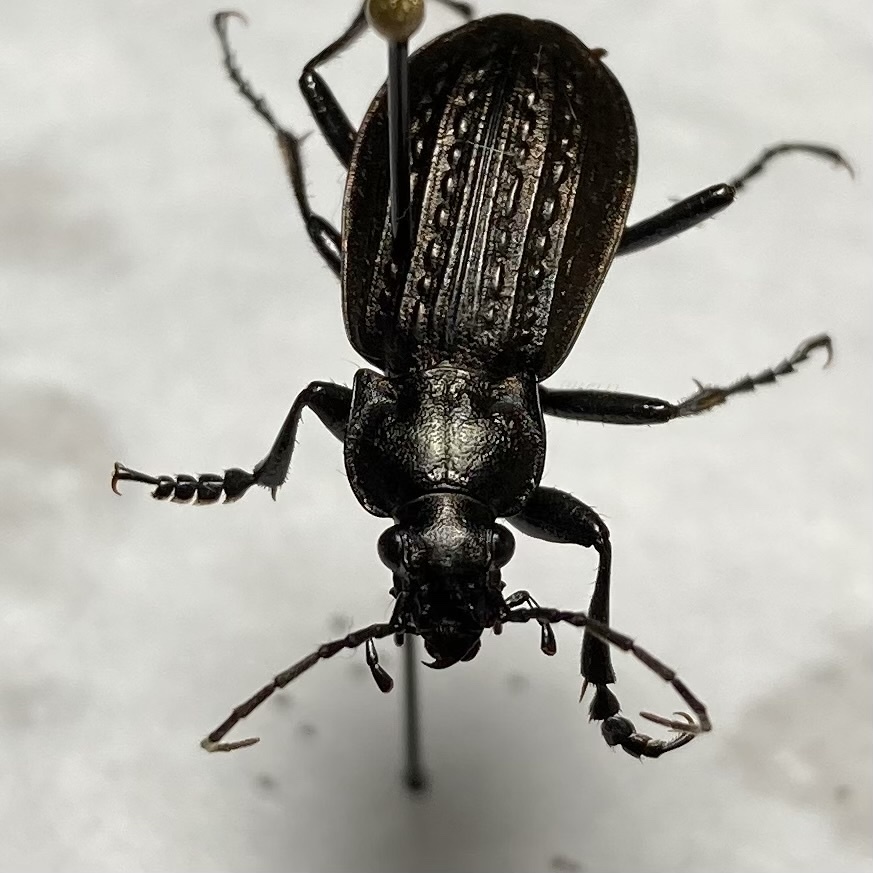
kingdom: Animalia
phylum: Arthropoda
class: Insecta
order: Coleoptera
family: Carabidae
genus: Carabus
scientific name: Carabus granulatus
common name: Granulate ground beetle
